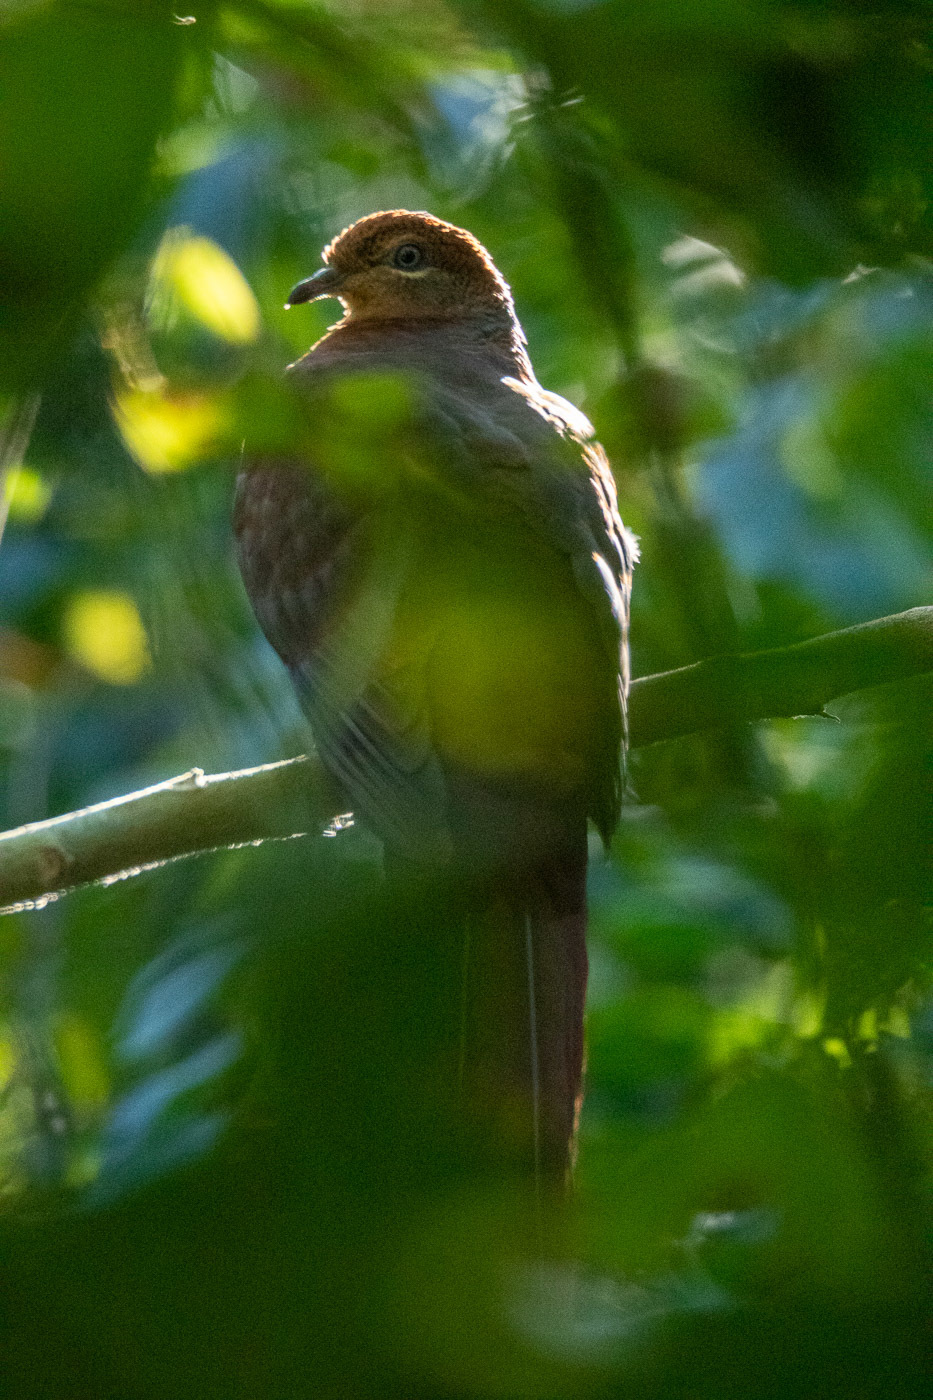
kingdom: Animalia
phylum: Chordata
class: Aves
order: Columbiformes
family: Columbidae
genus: Macropygia
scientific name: Macropygia phasianella
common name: Brown cuckoo-dove
